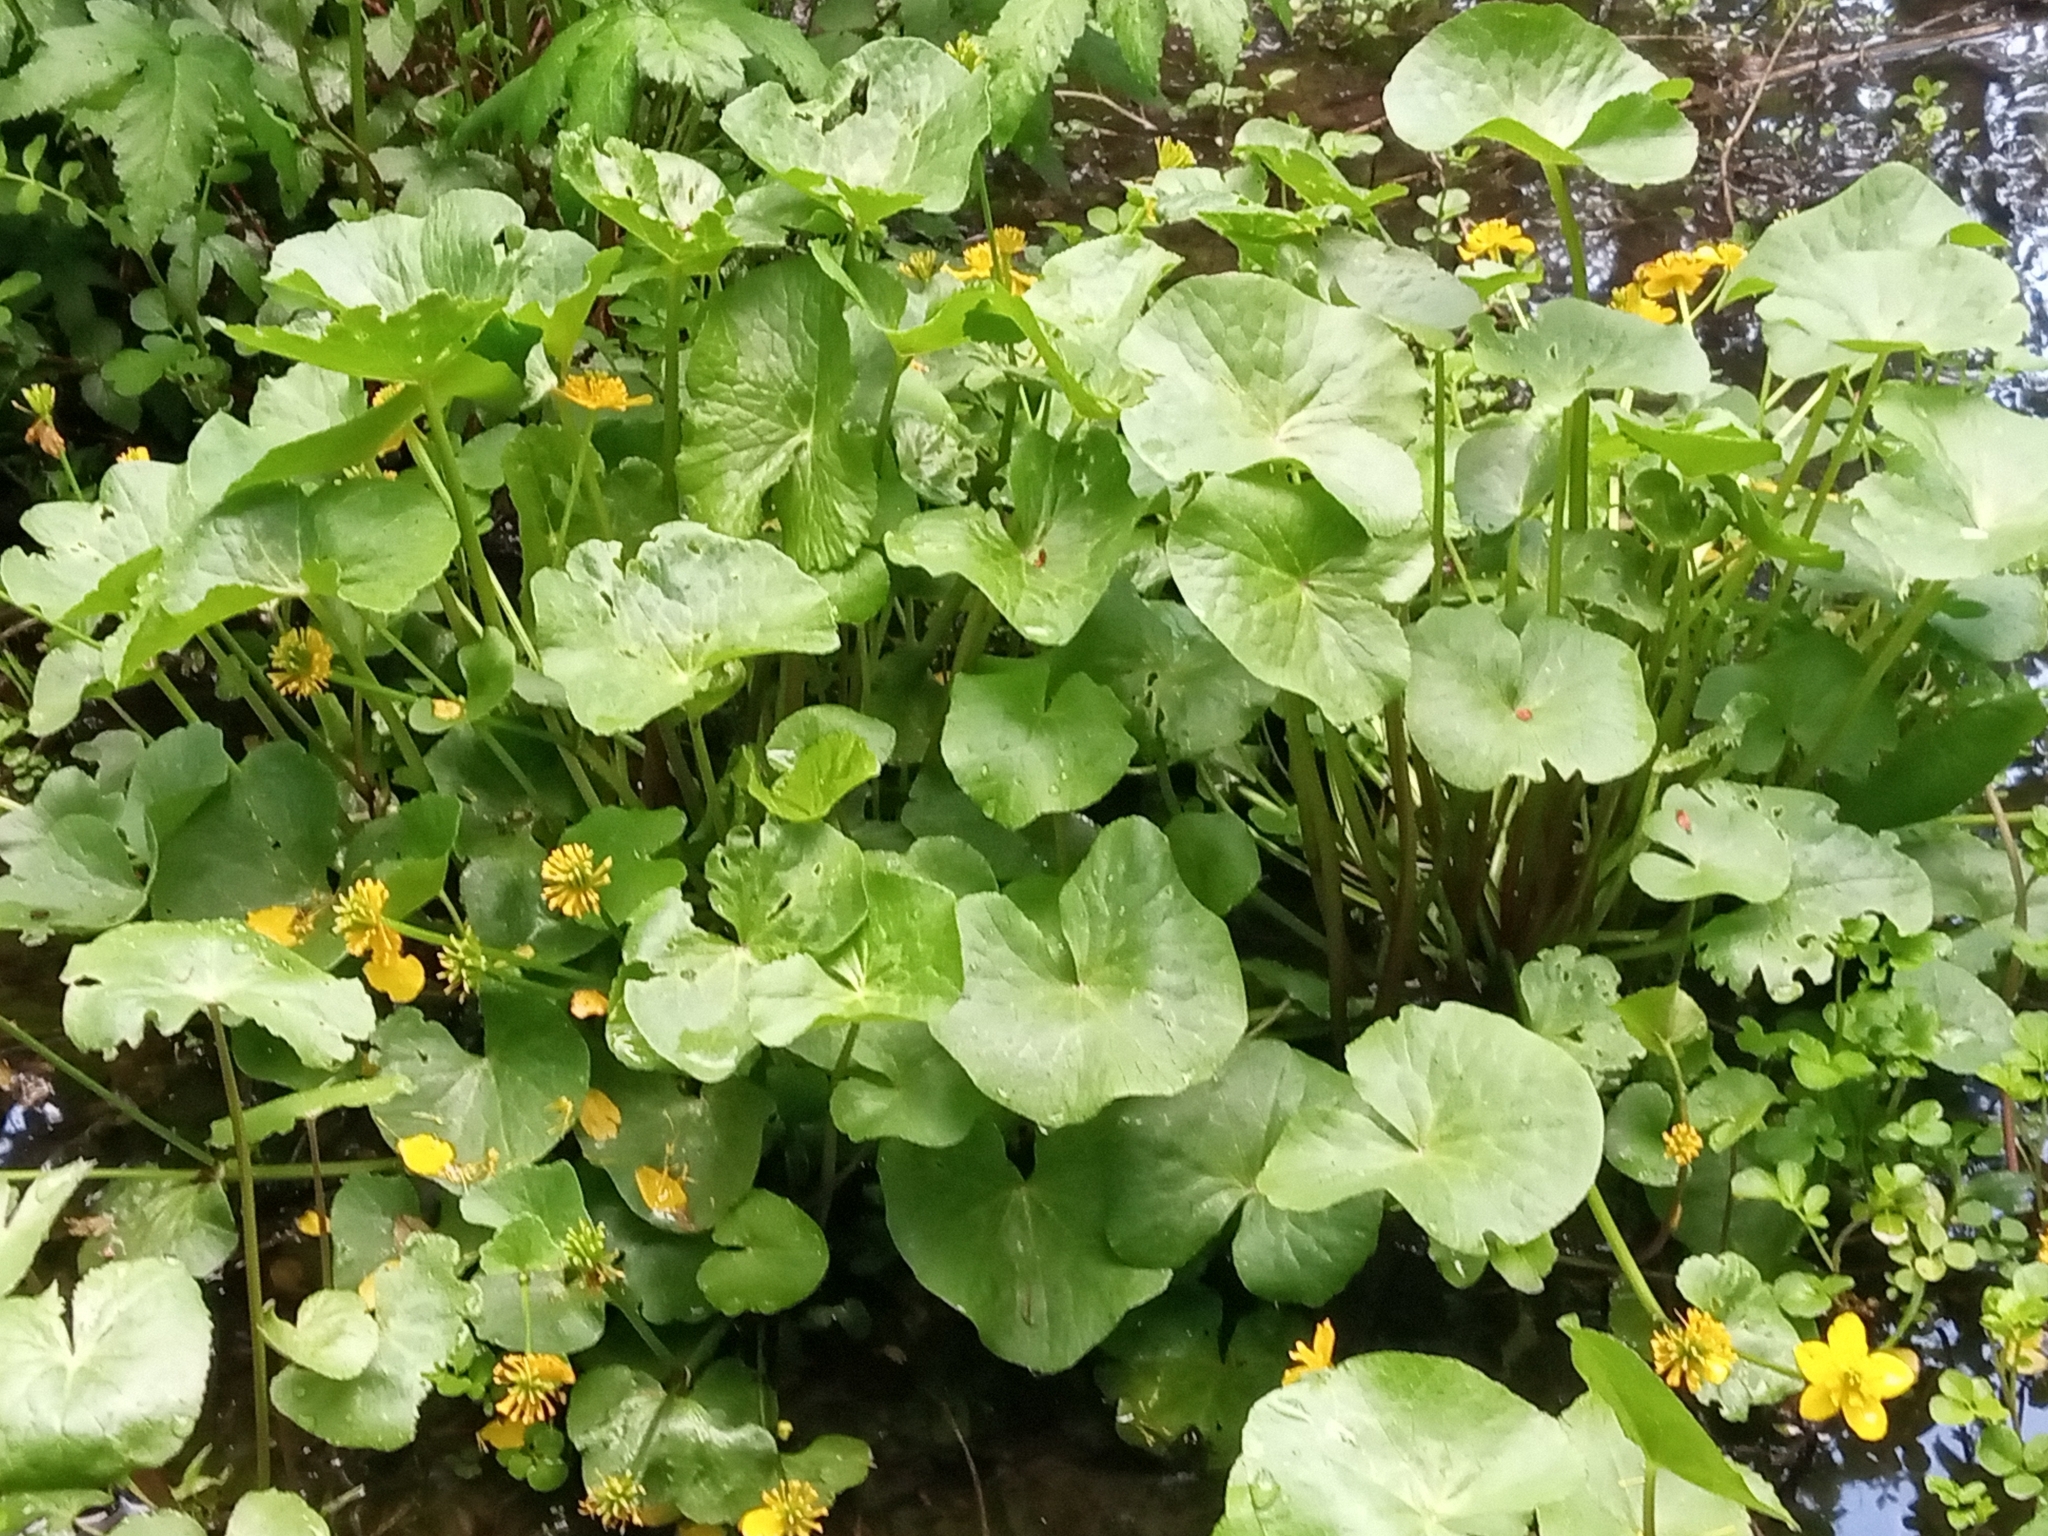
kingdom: Plantae
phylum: Tracheophyta
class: Magnoliopsida
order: Ranunculales
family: Ranunculaceae
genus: Caltha
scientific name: Caltha palustris
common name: Marsh marigold
